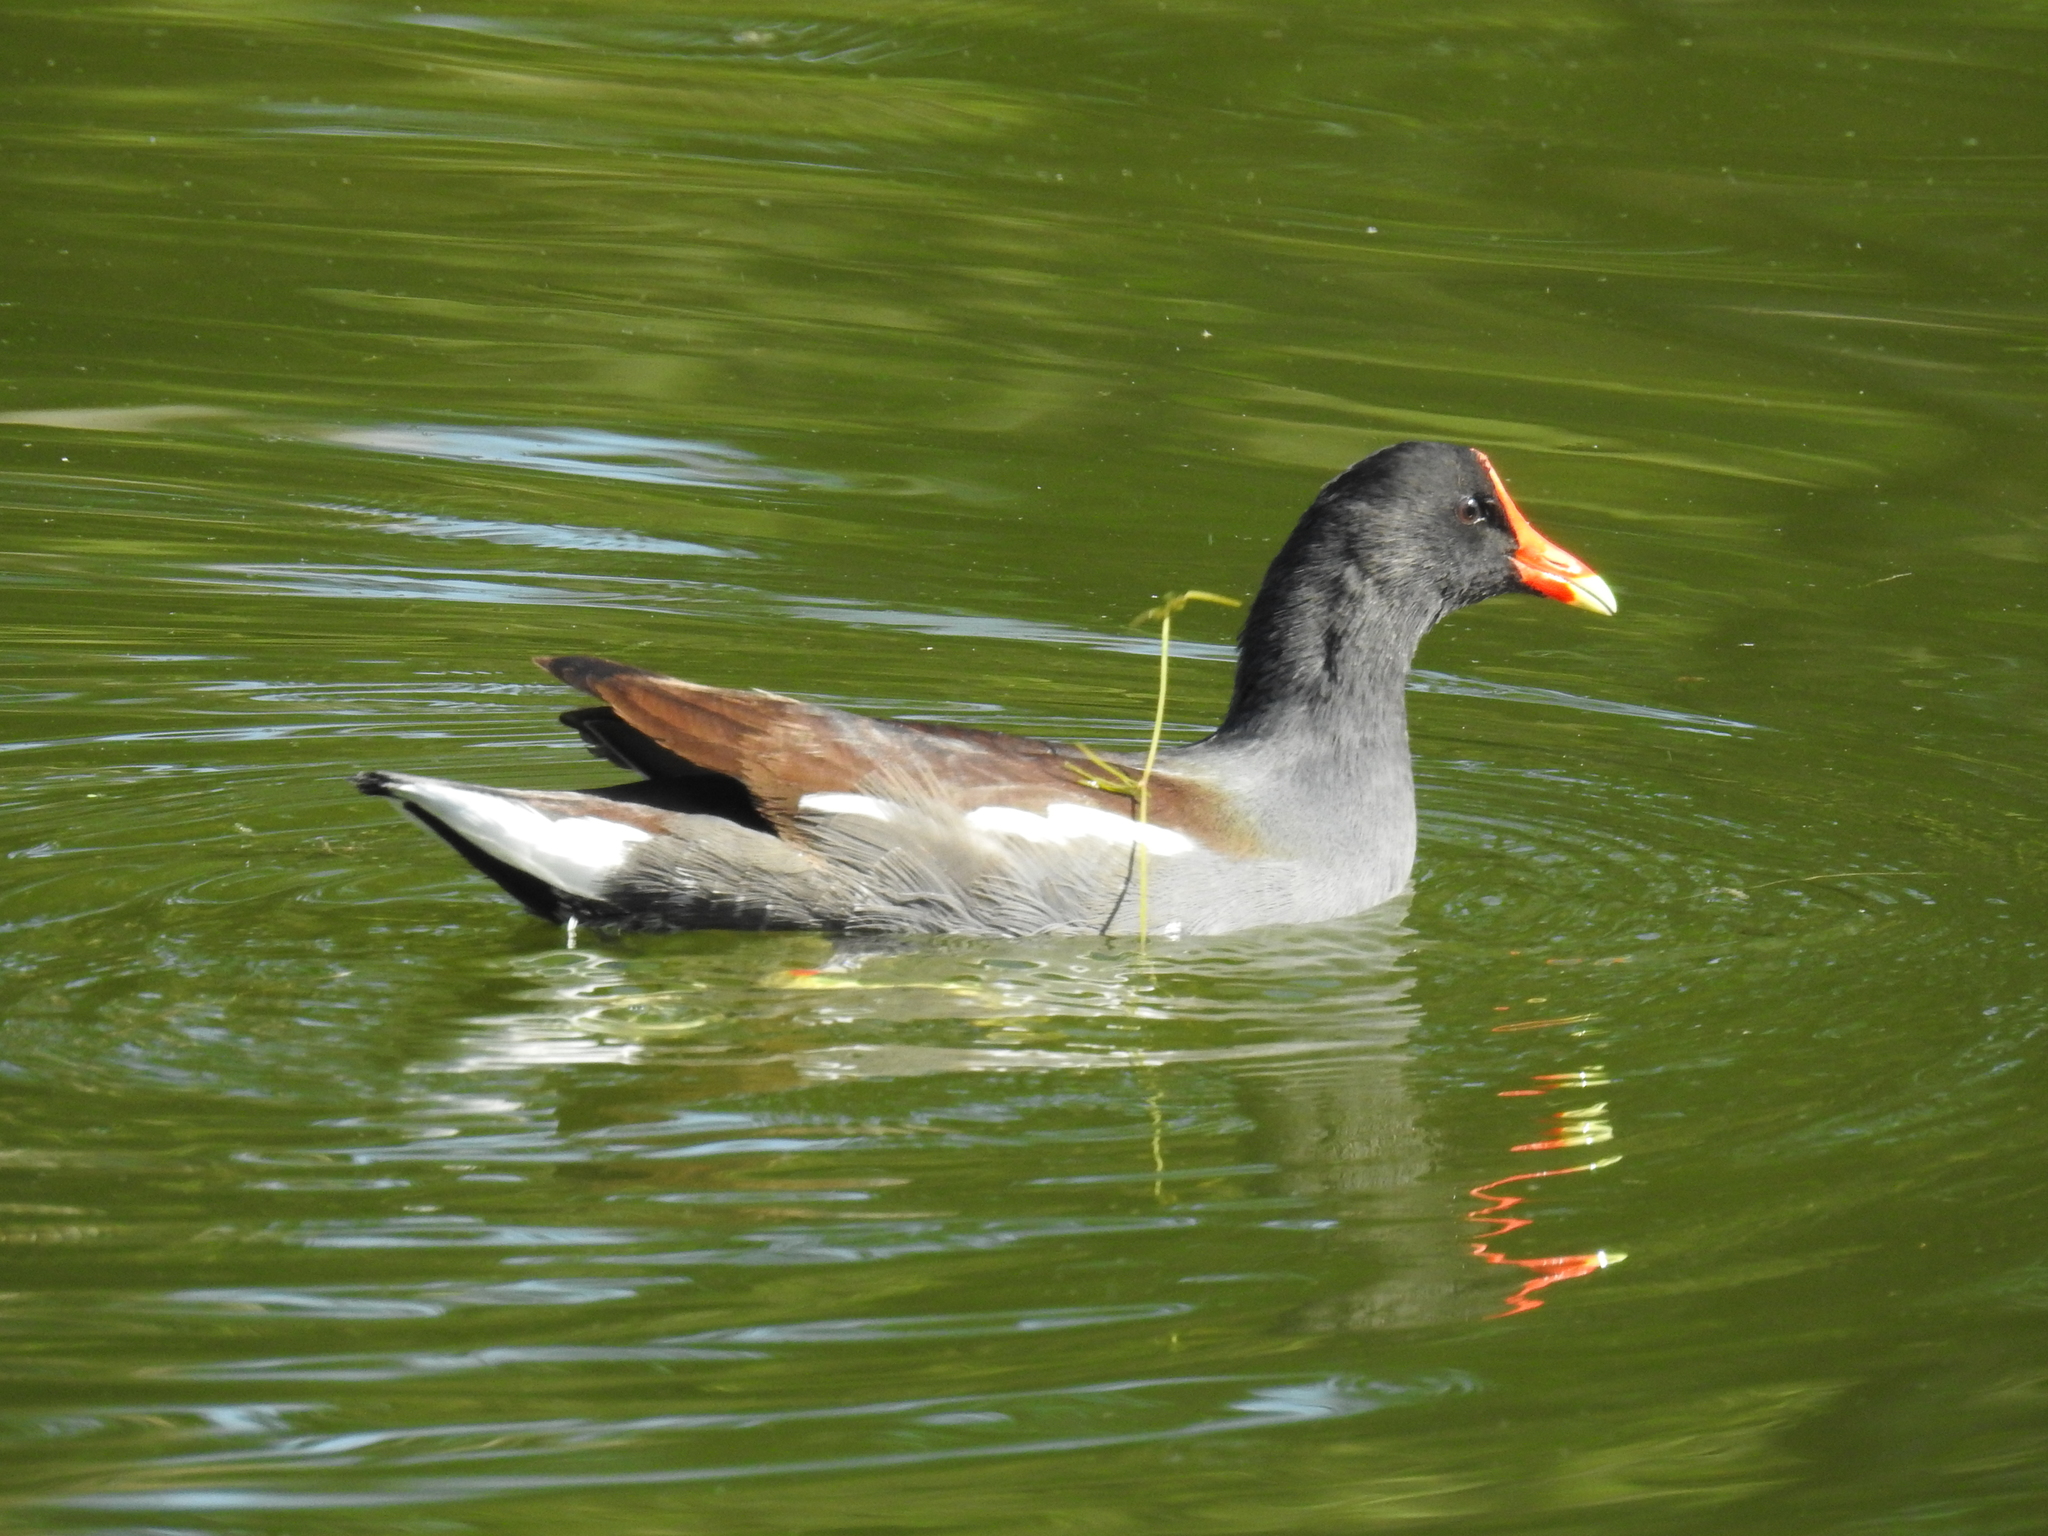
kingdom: Animalia
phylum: Chordata
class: Aves
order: Gruiformes
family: Rallidae
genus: Gallinula
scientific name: Gallinula chloropus
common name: Common moorhen
